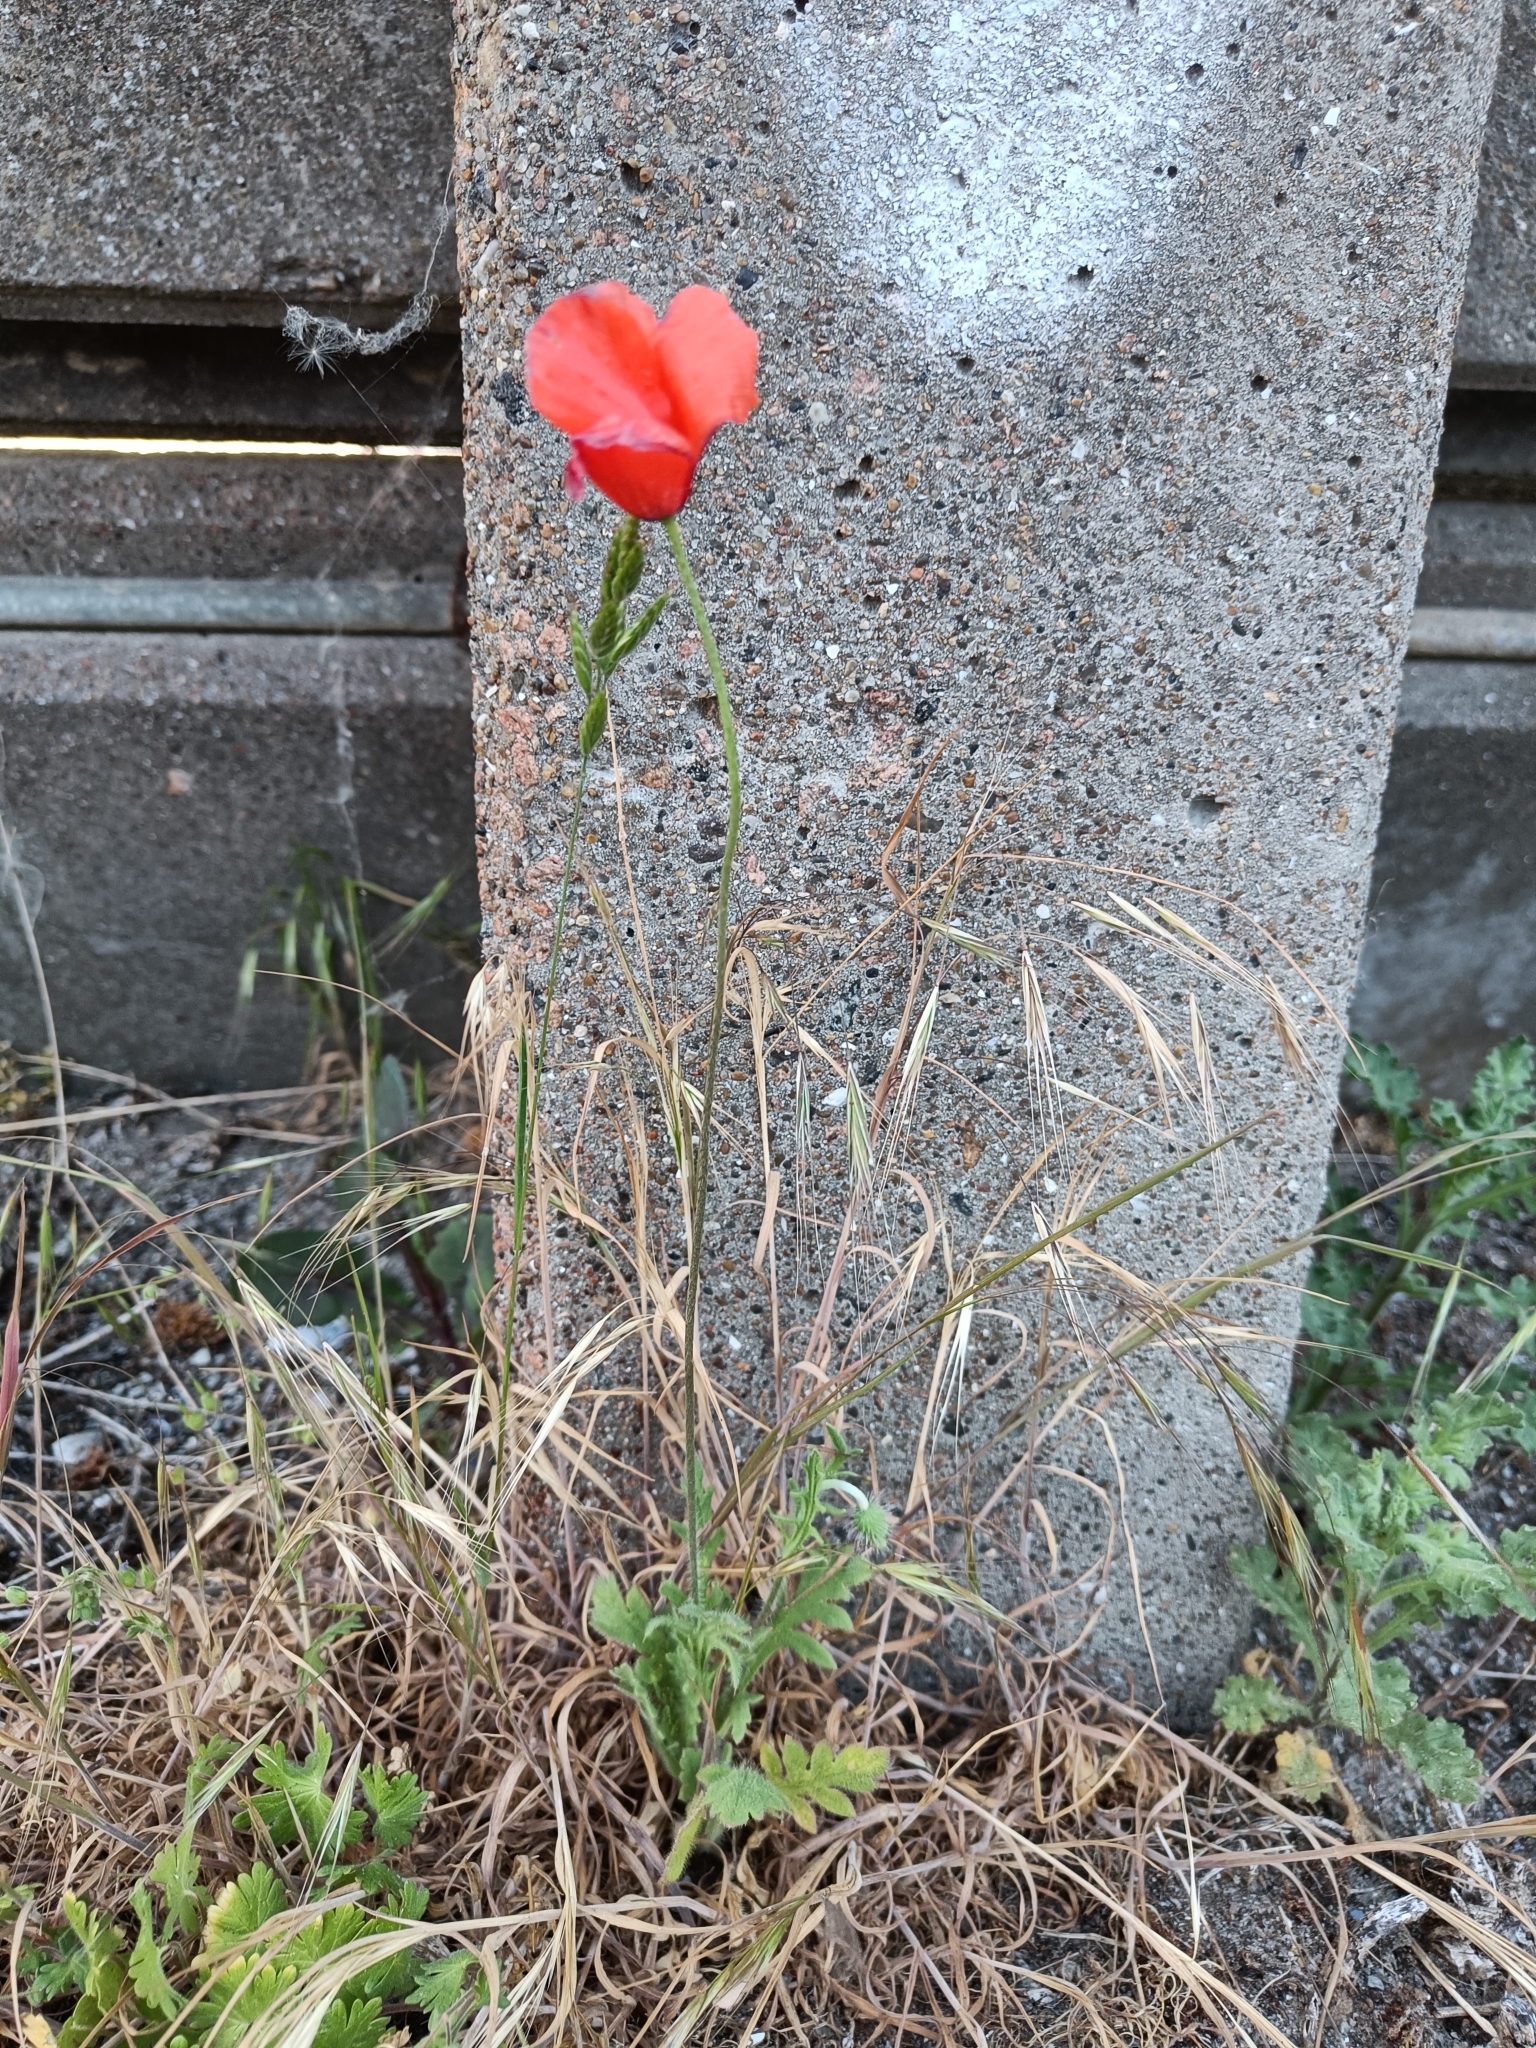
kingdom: Plantae
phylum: Tracheophyta
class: Magnoliopsida
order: Ranunculales
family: Papaveraceae
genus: Papaver
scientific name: Papaver dubium
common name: Long-headed poppy
